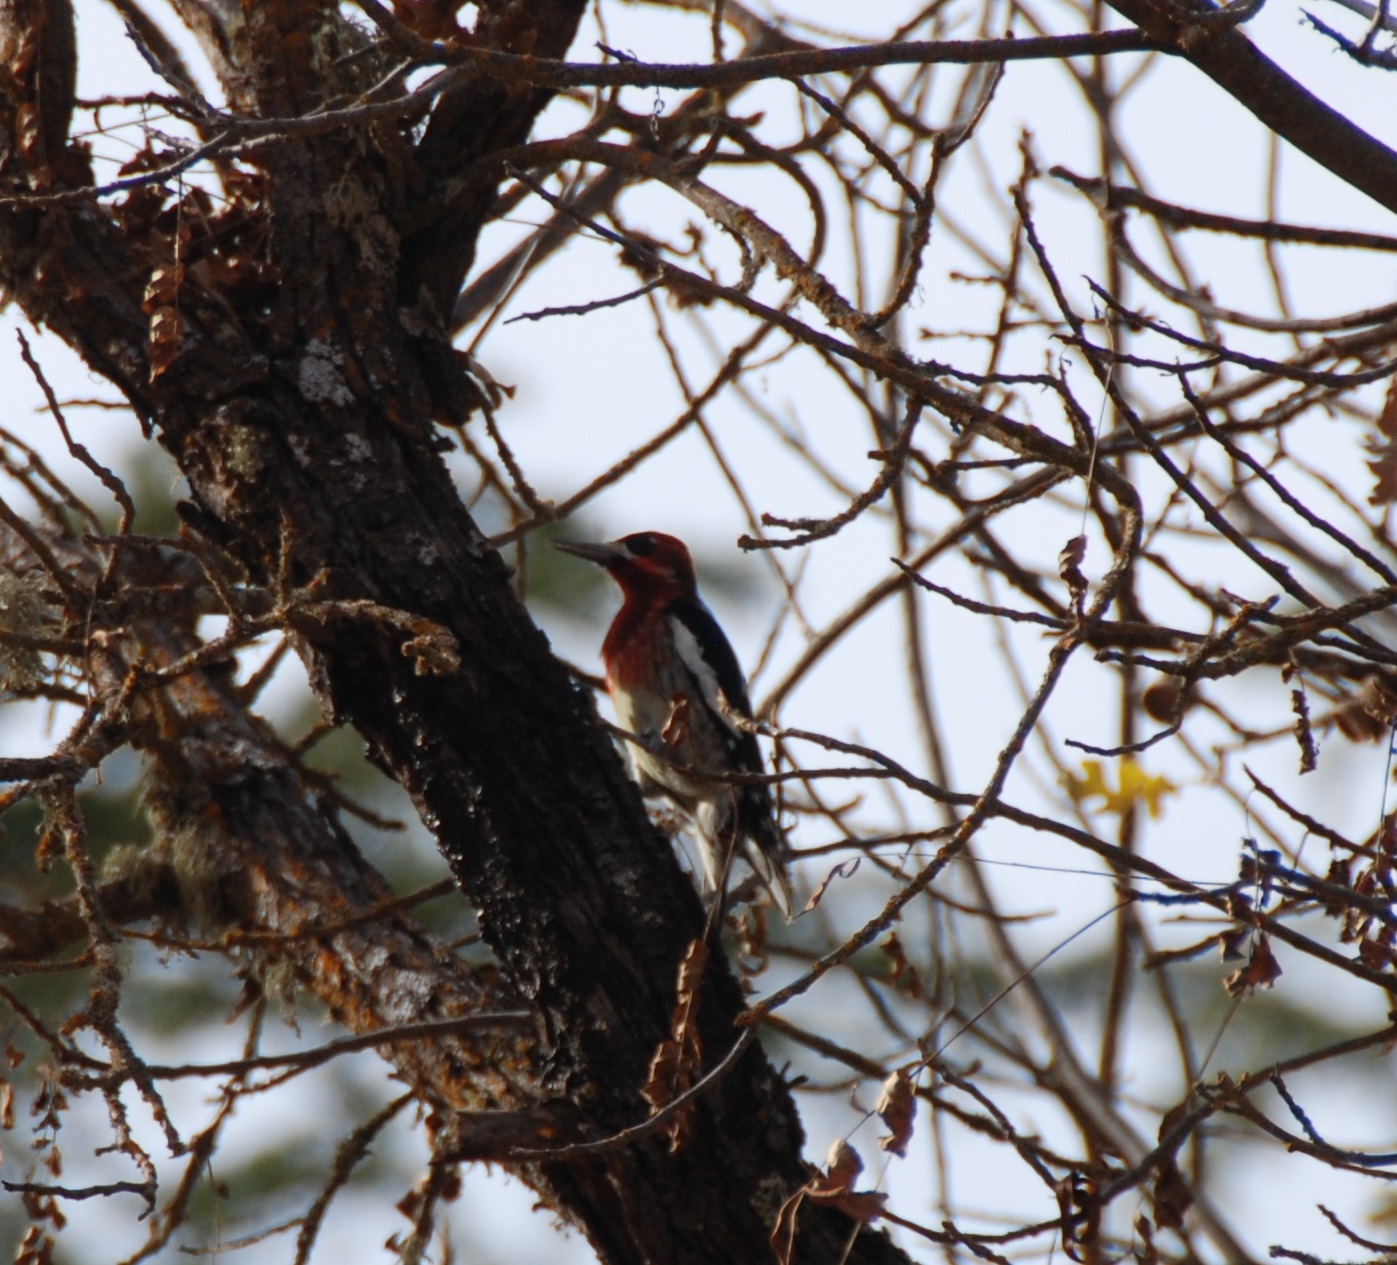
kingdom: Animalia
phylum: Chordata
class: Aves
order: Piciformes
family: Picidae
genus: Sphyrapicus
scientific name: Sphyrapicus ruber
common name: Red-breasted sapsucker
